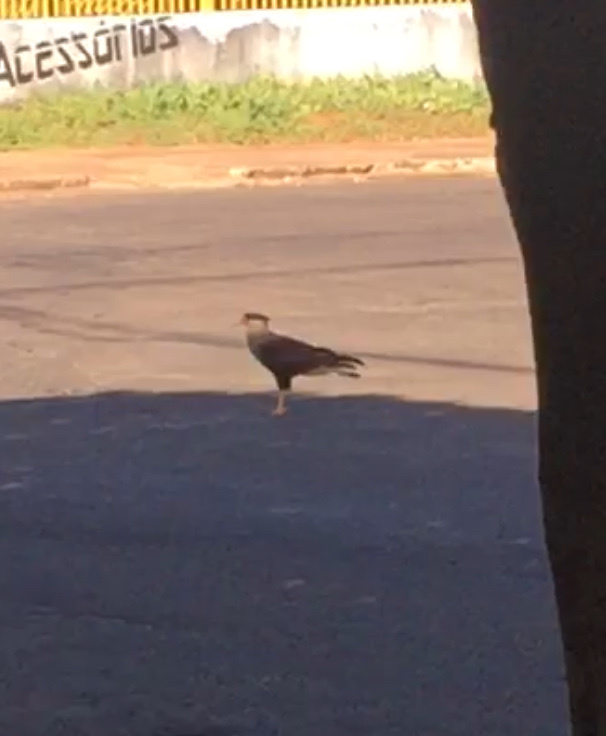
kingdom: Animalia
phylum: Chordata
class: Aves
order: Falconiformes
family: Falconidae
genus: Caracara
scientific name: Caracara plancus
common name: Southern caracara
